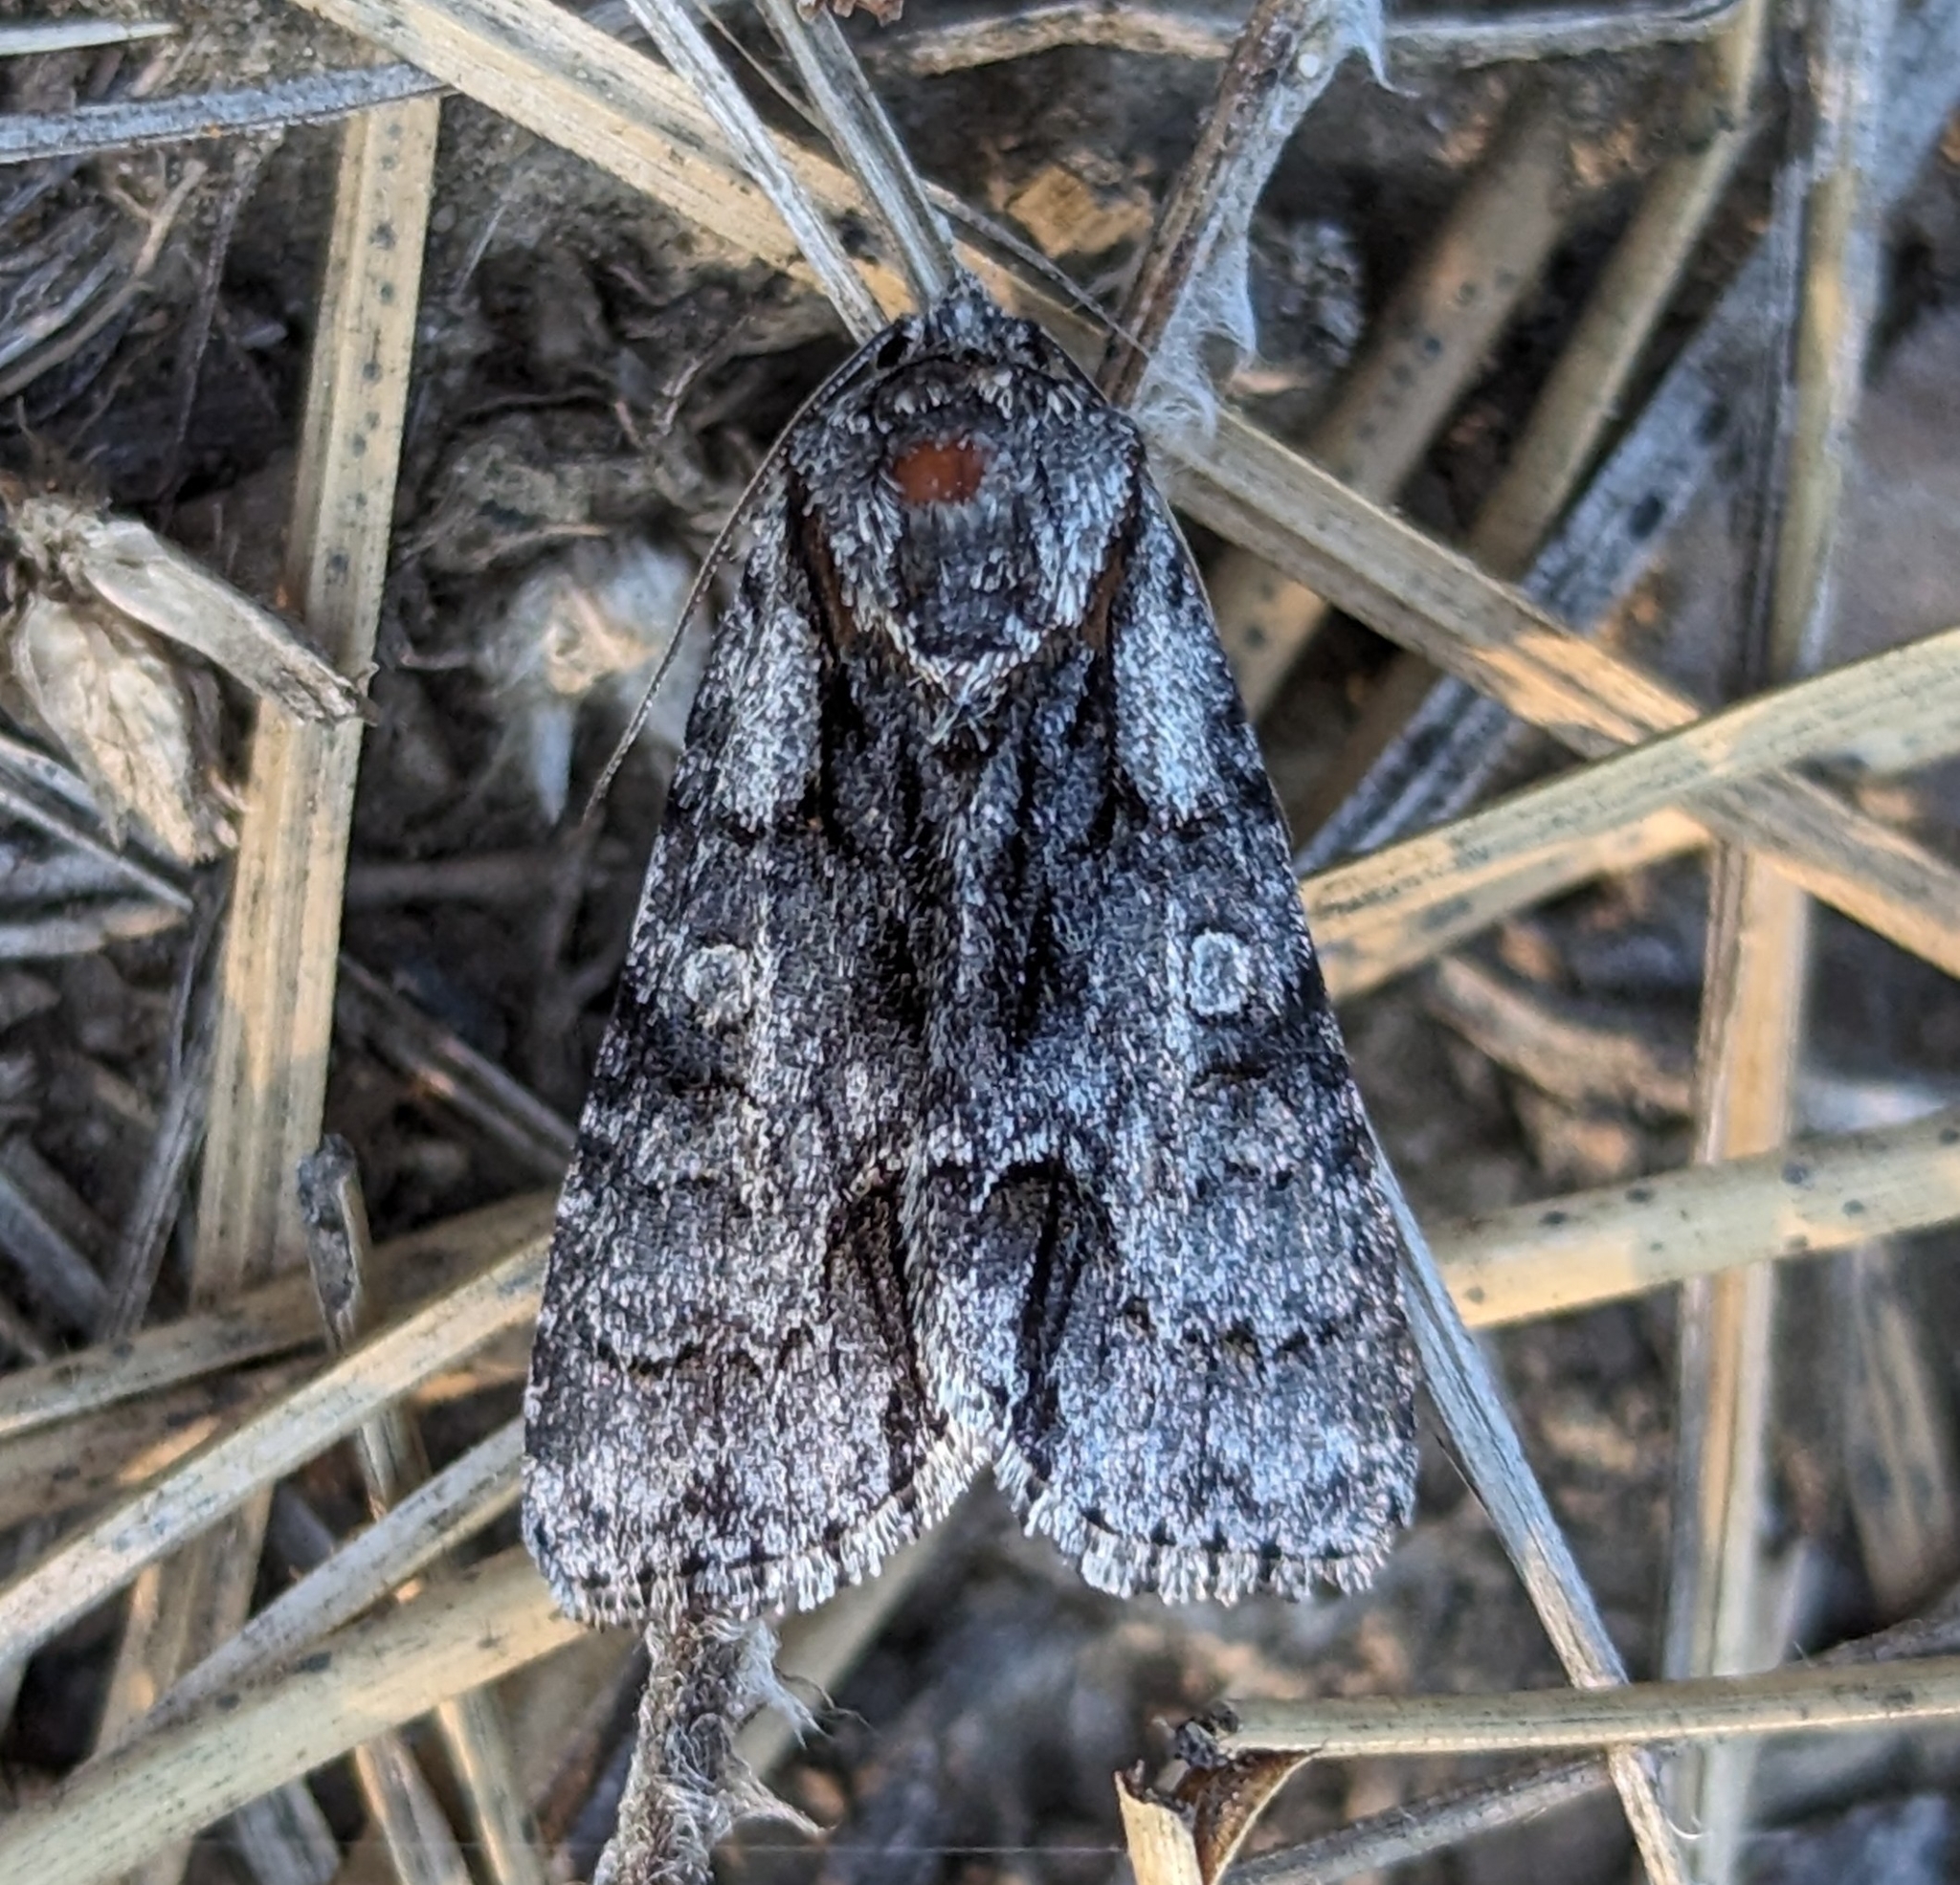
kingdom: Animalia
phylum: Arthropoda
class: Insecta
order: Lepidoptera
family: Noctuidae
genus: Acronicta
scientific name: Acronicta mansueta
